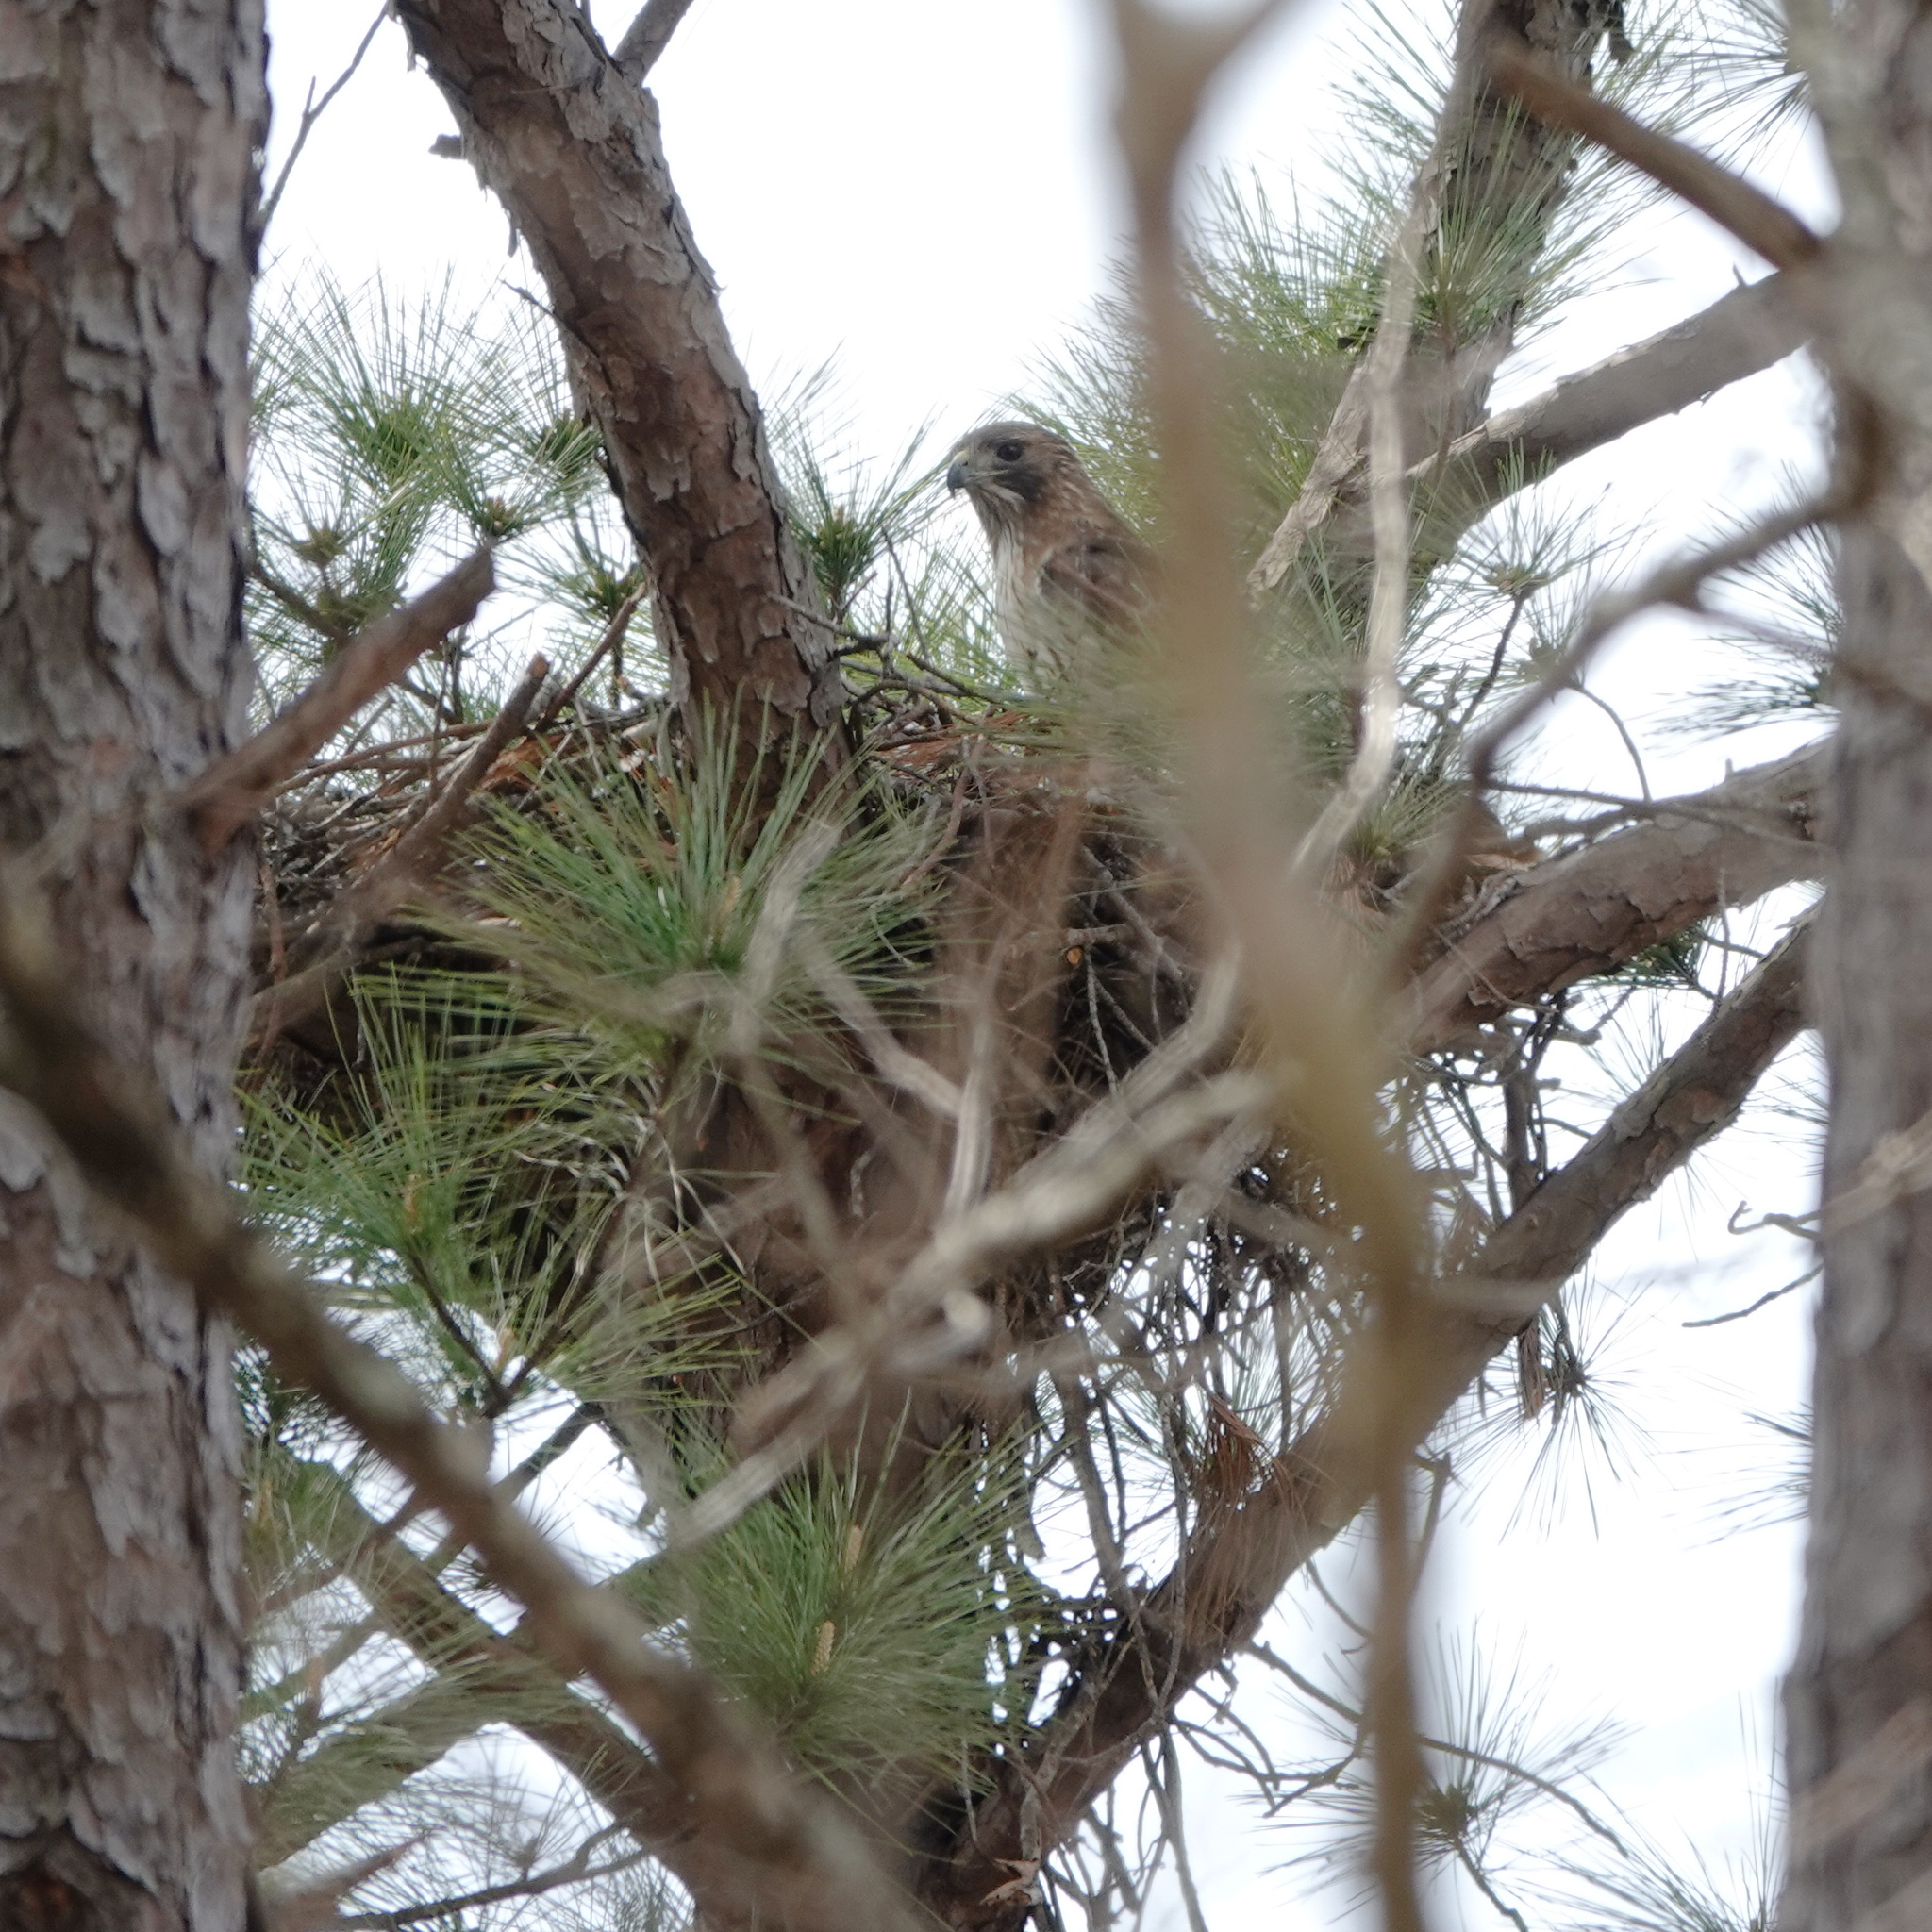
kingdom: Animalia
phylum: Chordata
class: Aves
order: Accipitriformes
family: Accipitridae
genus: Buteo
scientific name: Buteo jamaicensis
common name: Red-tailed hawk
